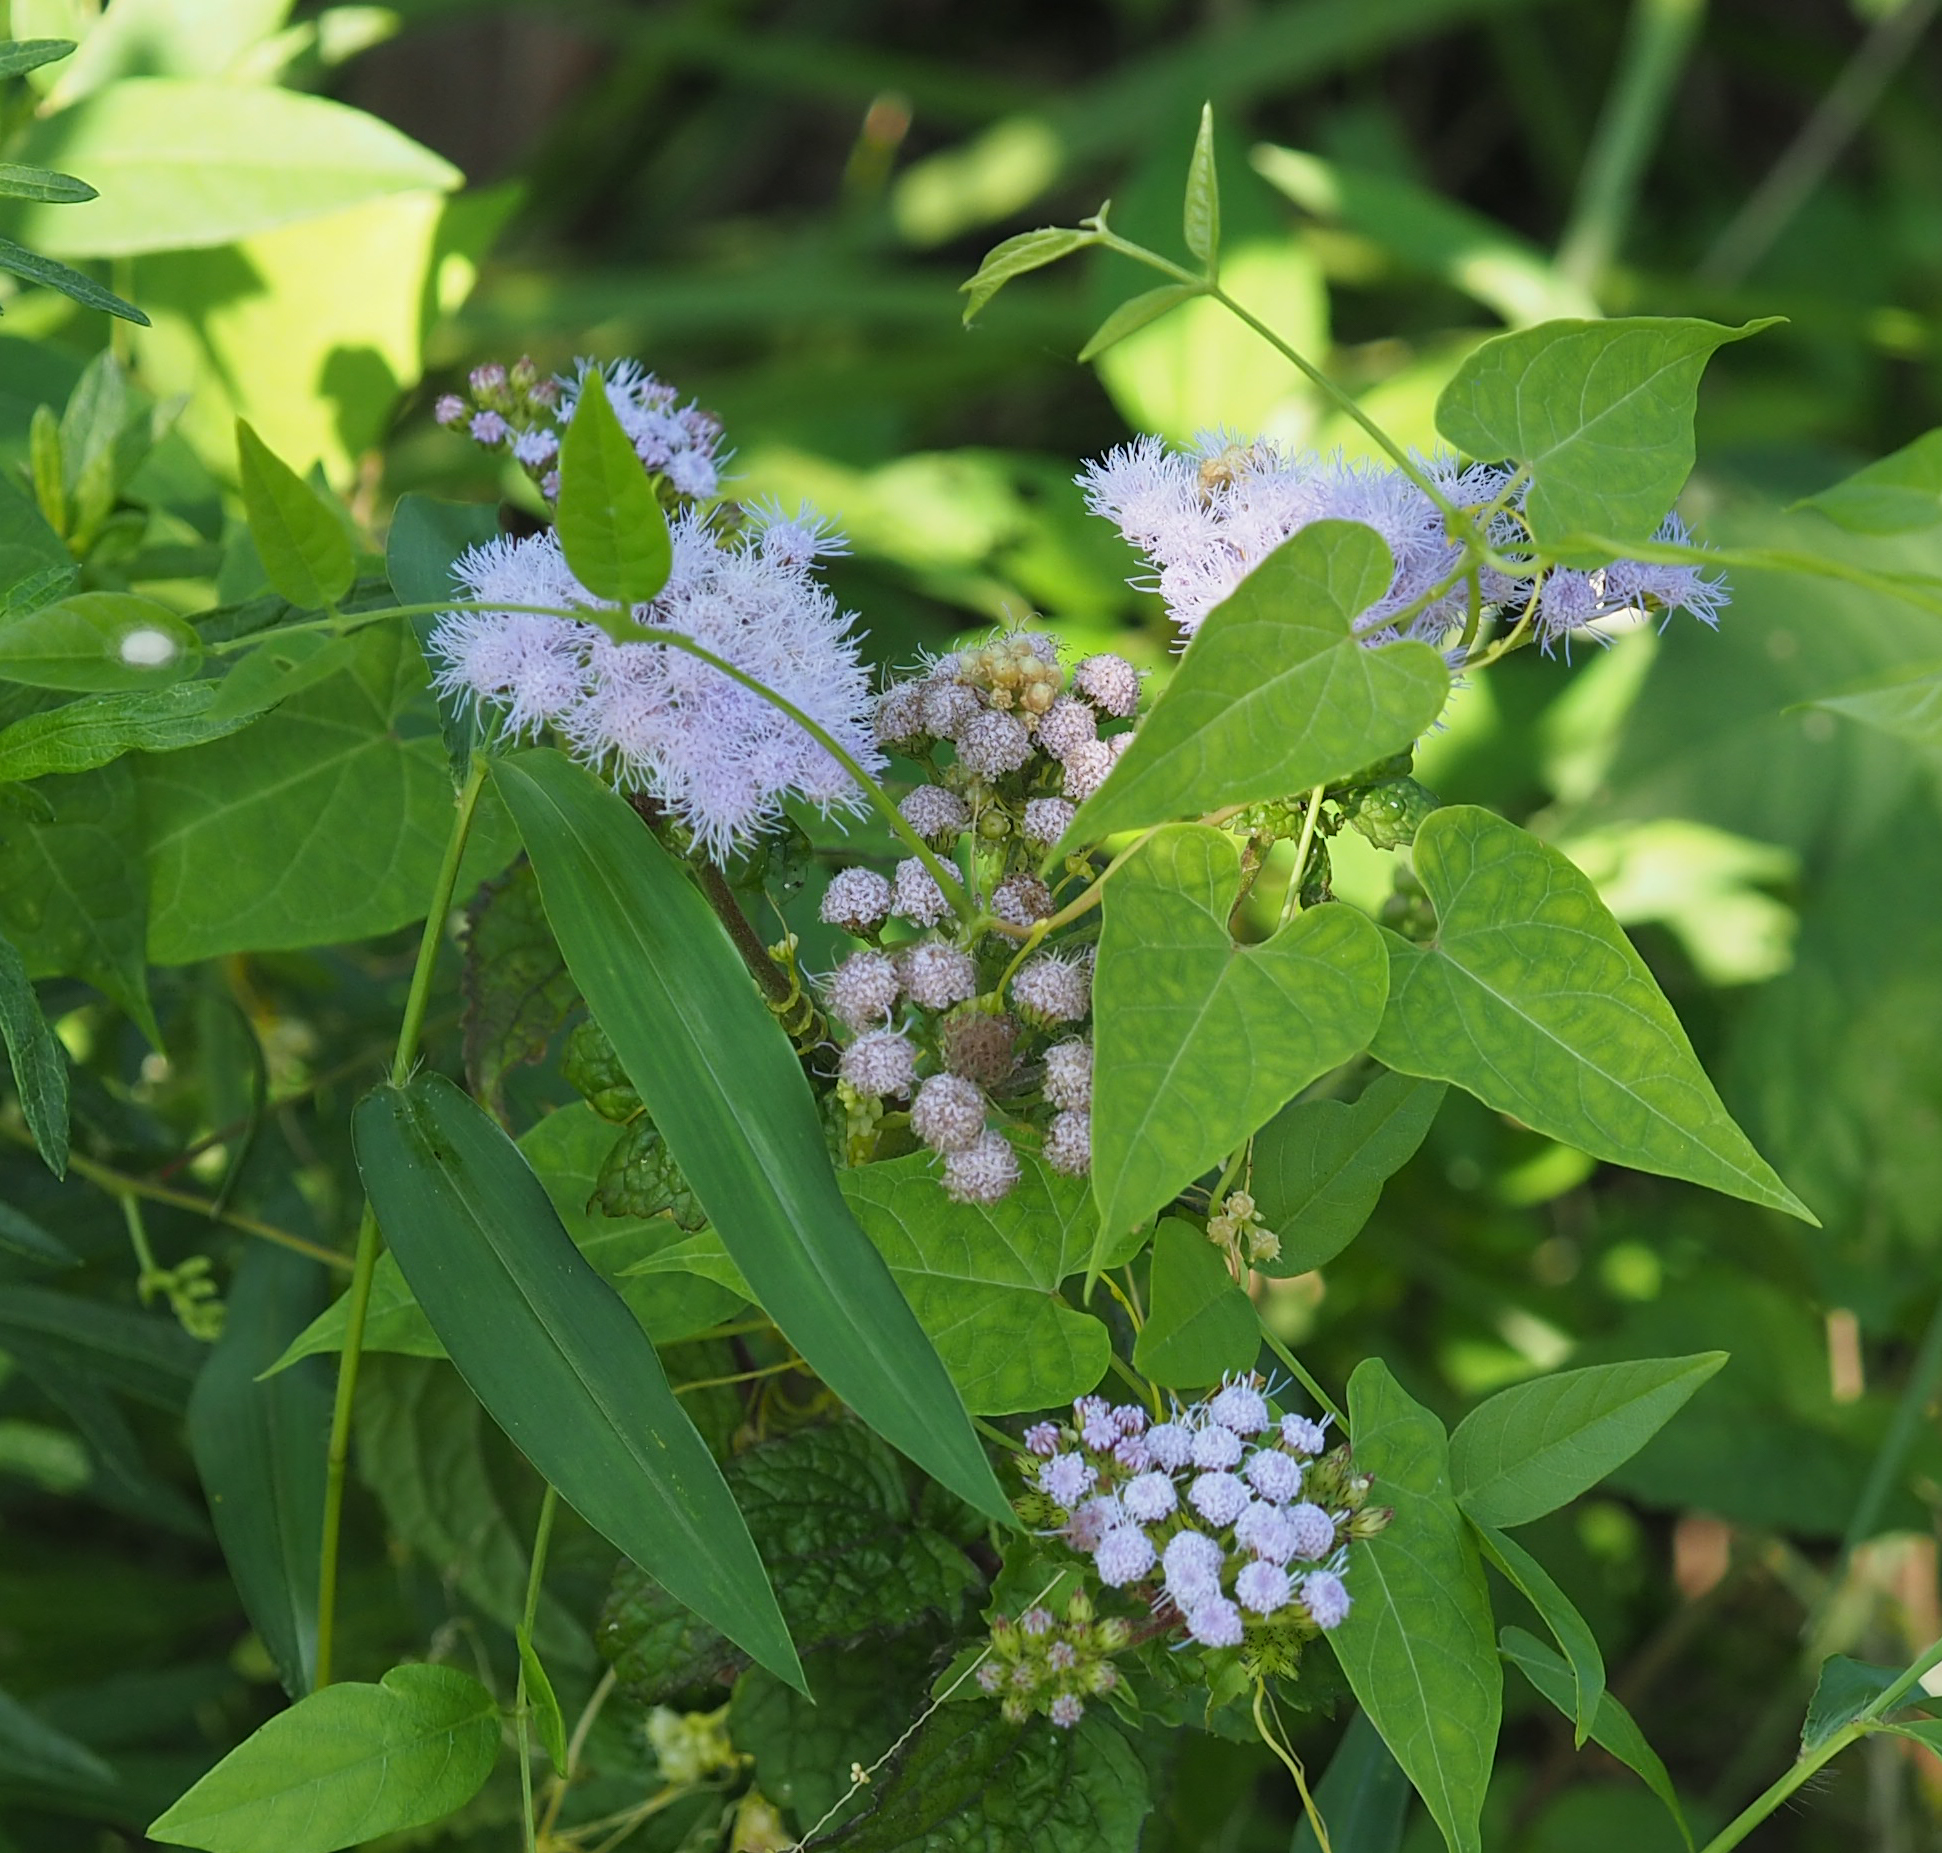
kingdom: Plantae
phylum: Tracheophyta
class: Magnoliopsida
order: Asterales
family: Asteraceae
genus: Conoclinium
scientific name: Conoclinium coelestinum
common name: Blue mistflower
